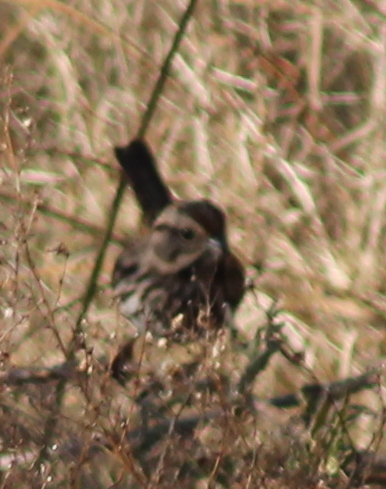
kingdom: Animalia
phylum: Chordata
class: Aves
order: Passeriformes
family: Passerellidae
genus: Melospiza
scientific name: Melospiza melodia
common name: Song sparrow
